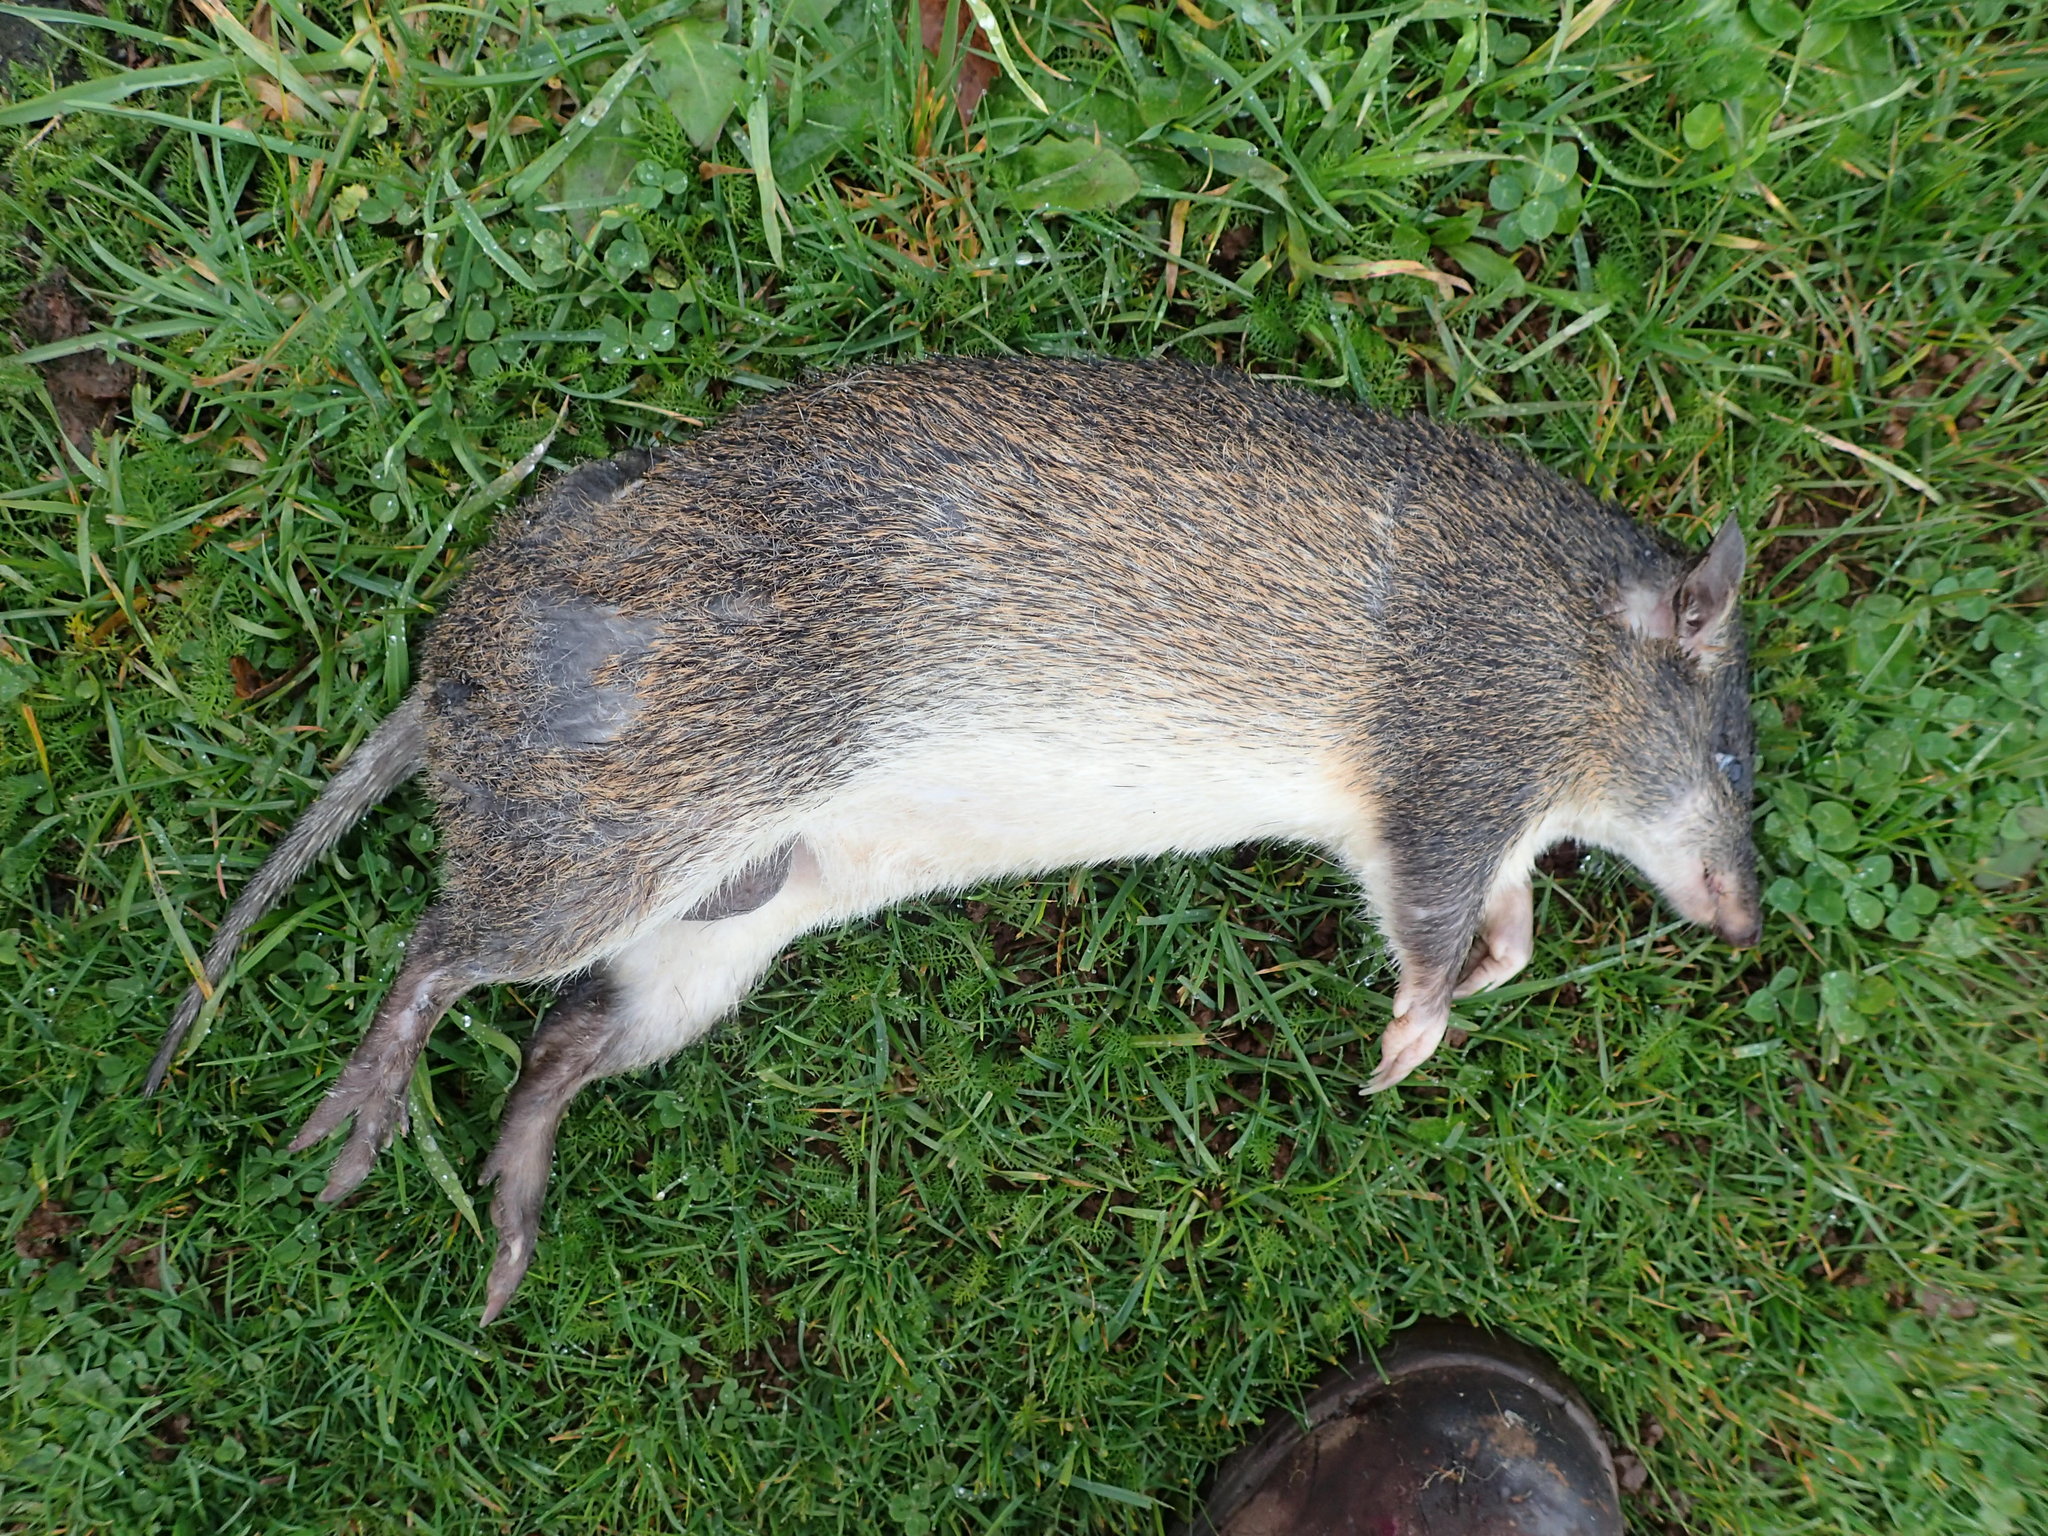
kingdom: Animalia
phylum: Chordata
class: Mammalia
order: Peramelemorphia
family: Peramelidae
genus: Isoodon
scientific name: Isoodon obesulus
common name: Southern brown bandicoot
